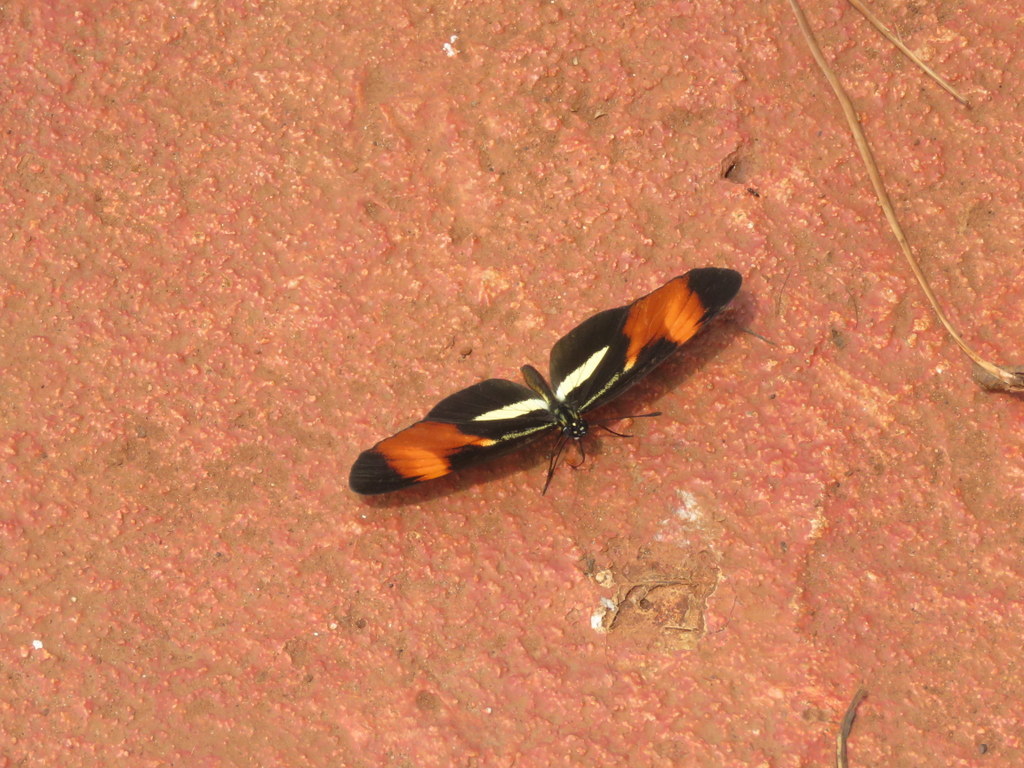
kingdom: Animalia
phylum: Arthropoda
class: Insecta
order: Lepidoptera
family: Nymphalidae
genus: Eresia
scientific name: Eresia lansdorfi
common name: Lansdorf's crescent
